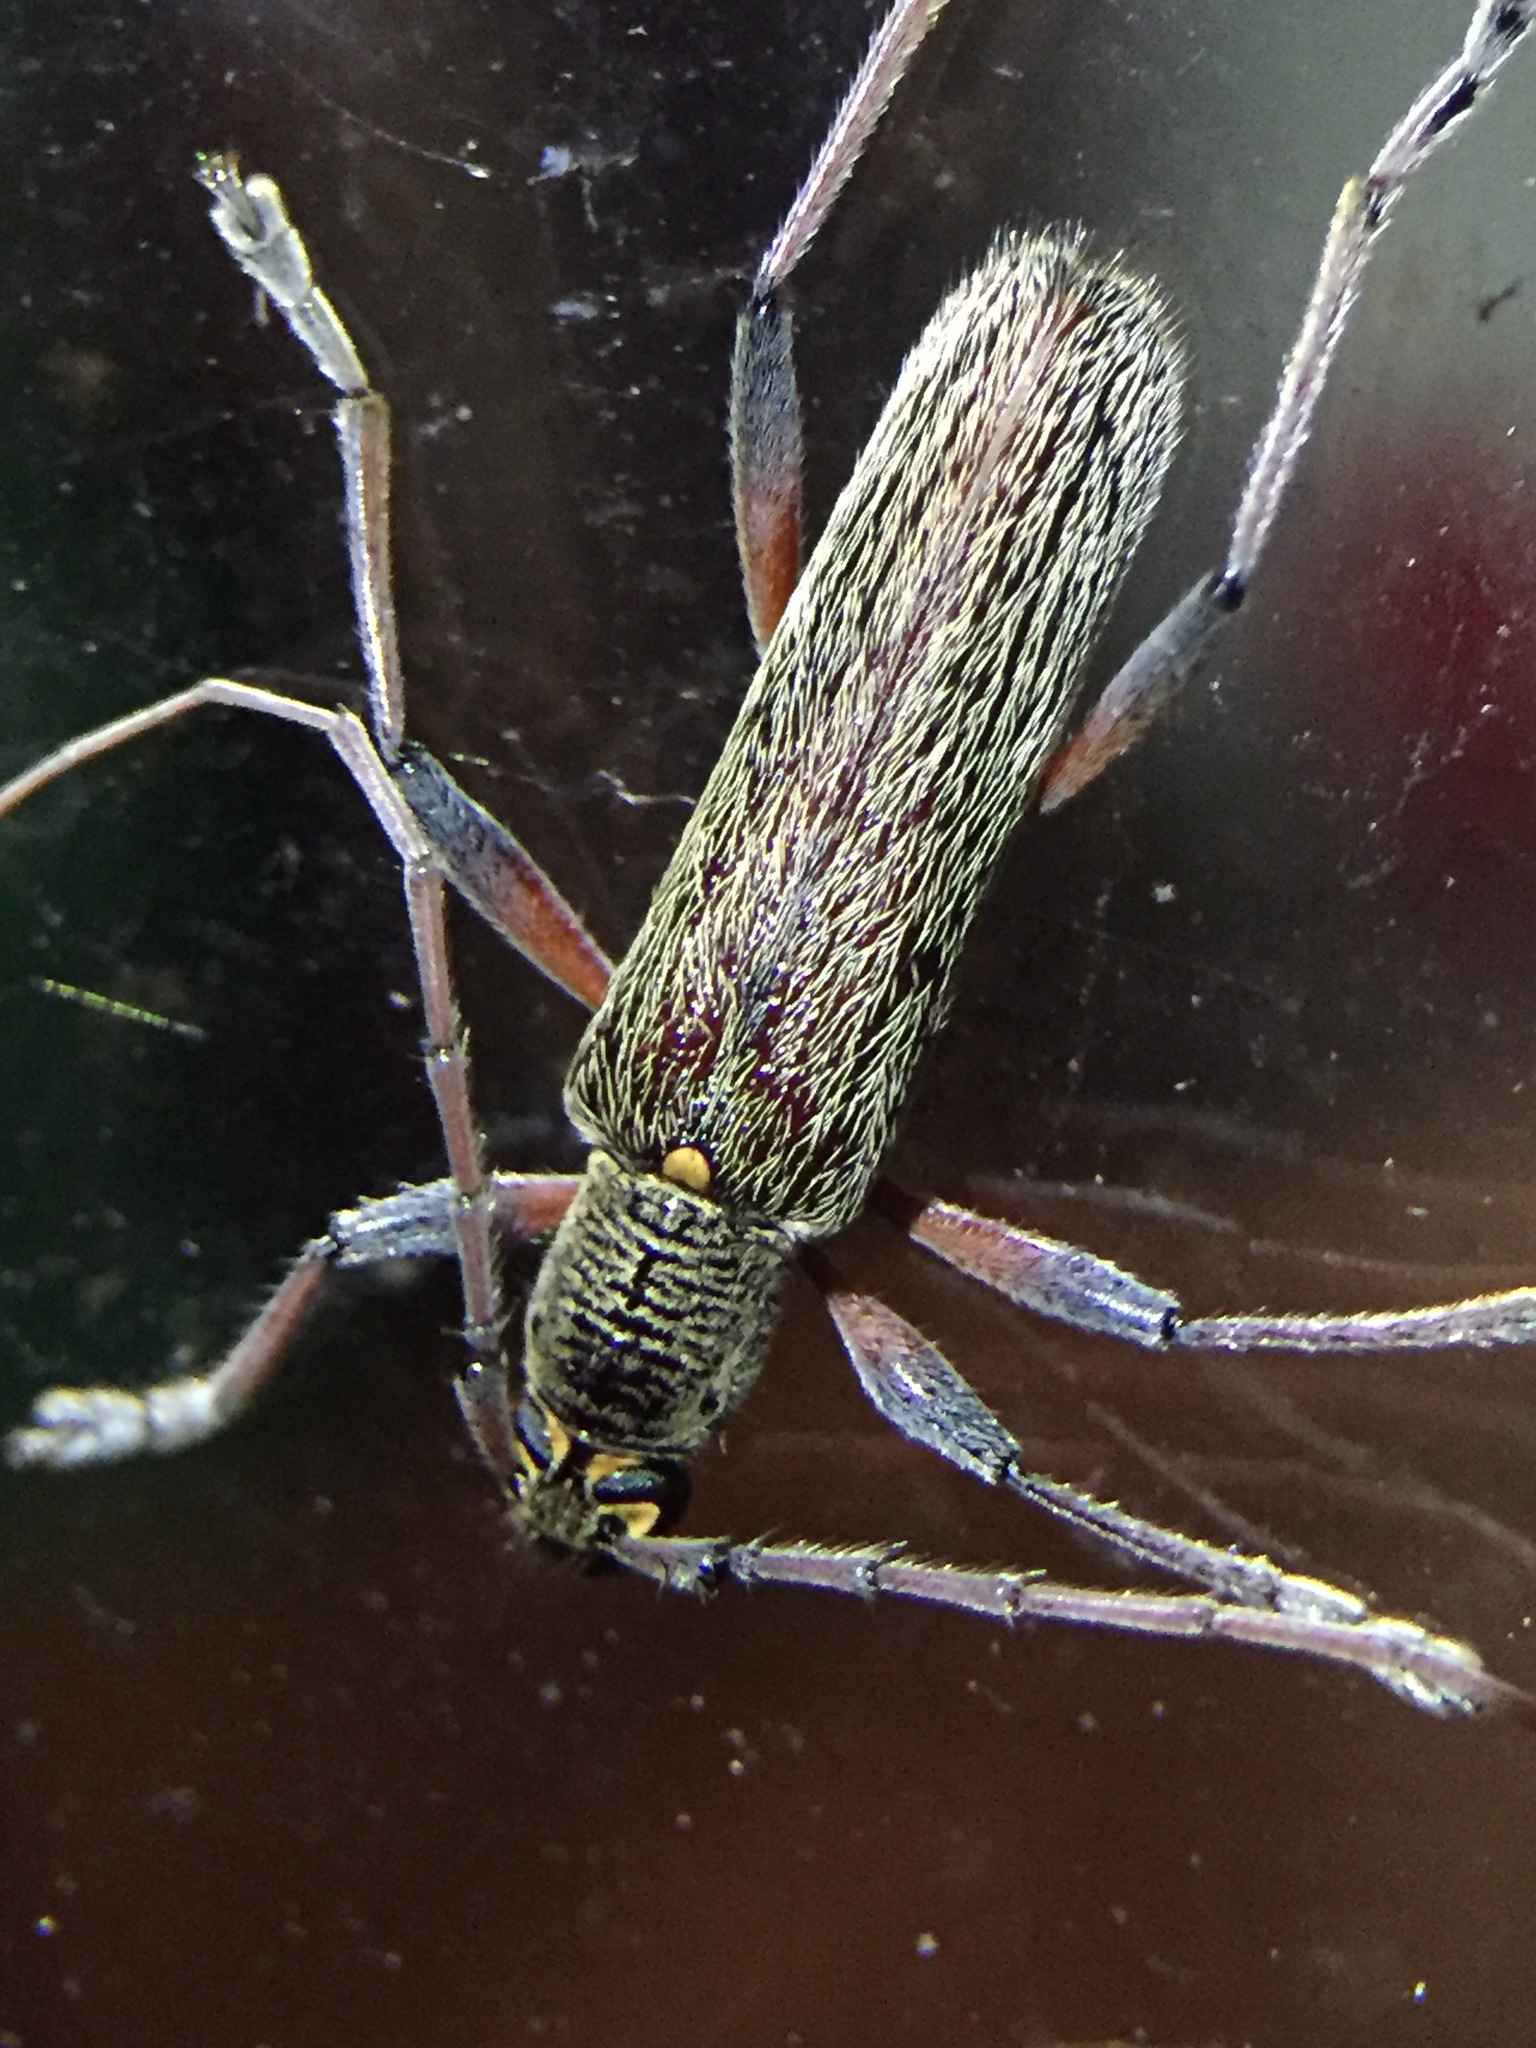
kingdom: Animalia
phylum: Arthropoda
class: Insecta
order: Coleoptera
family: Cerambycidae
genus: Oemona
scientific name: Oemona hirta
